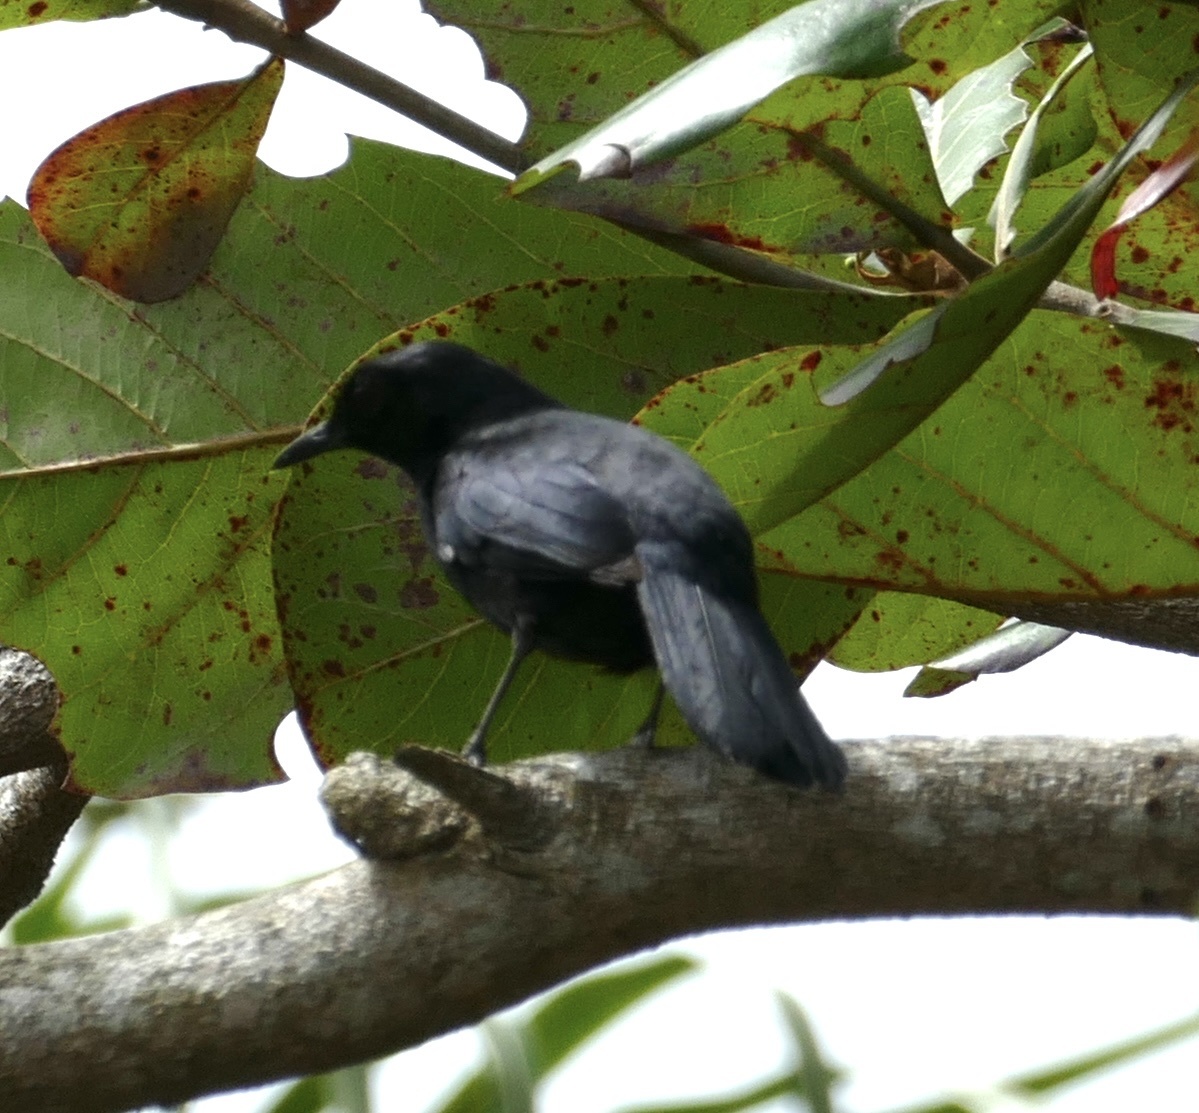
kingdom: Animalia
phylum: Chordata
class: Aves
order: Passeriformes
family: Mimidae
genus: Melanoptila
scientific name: Melanoptila glabrirostris
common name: Black catbird
